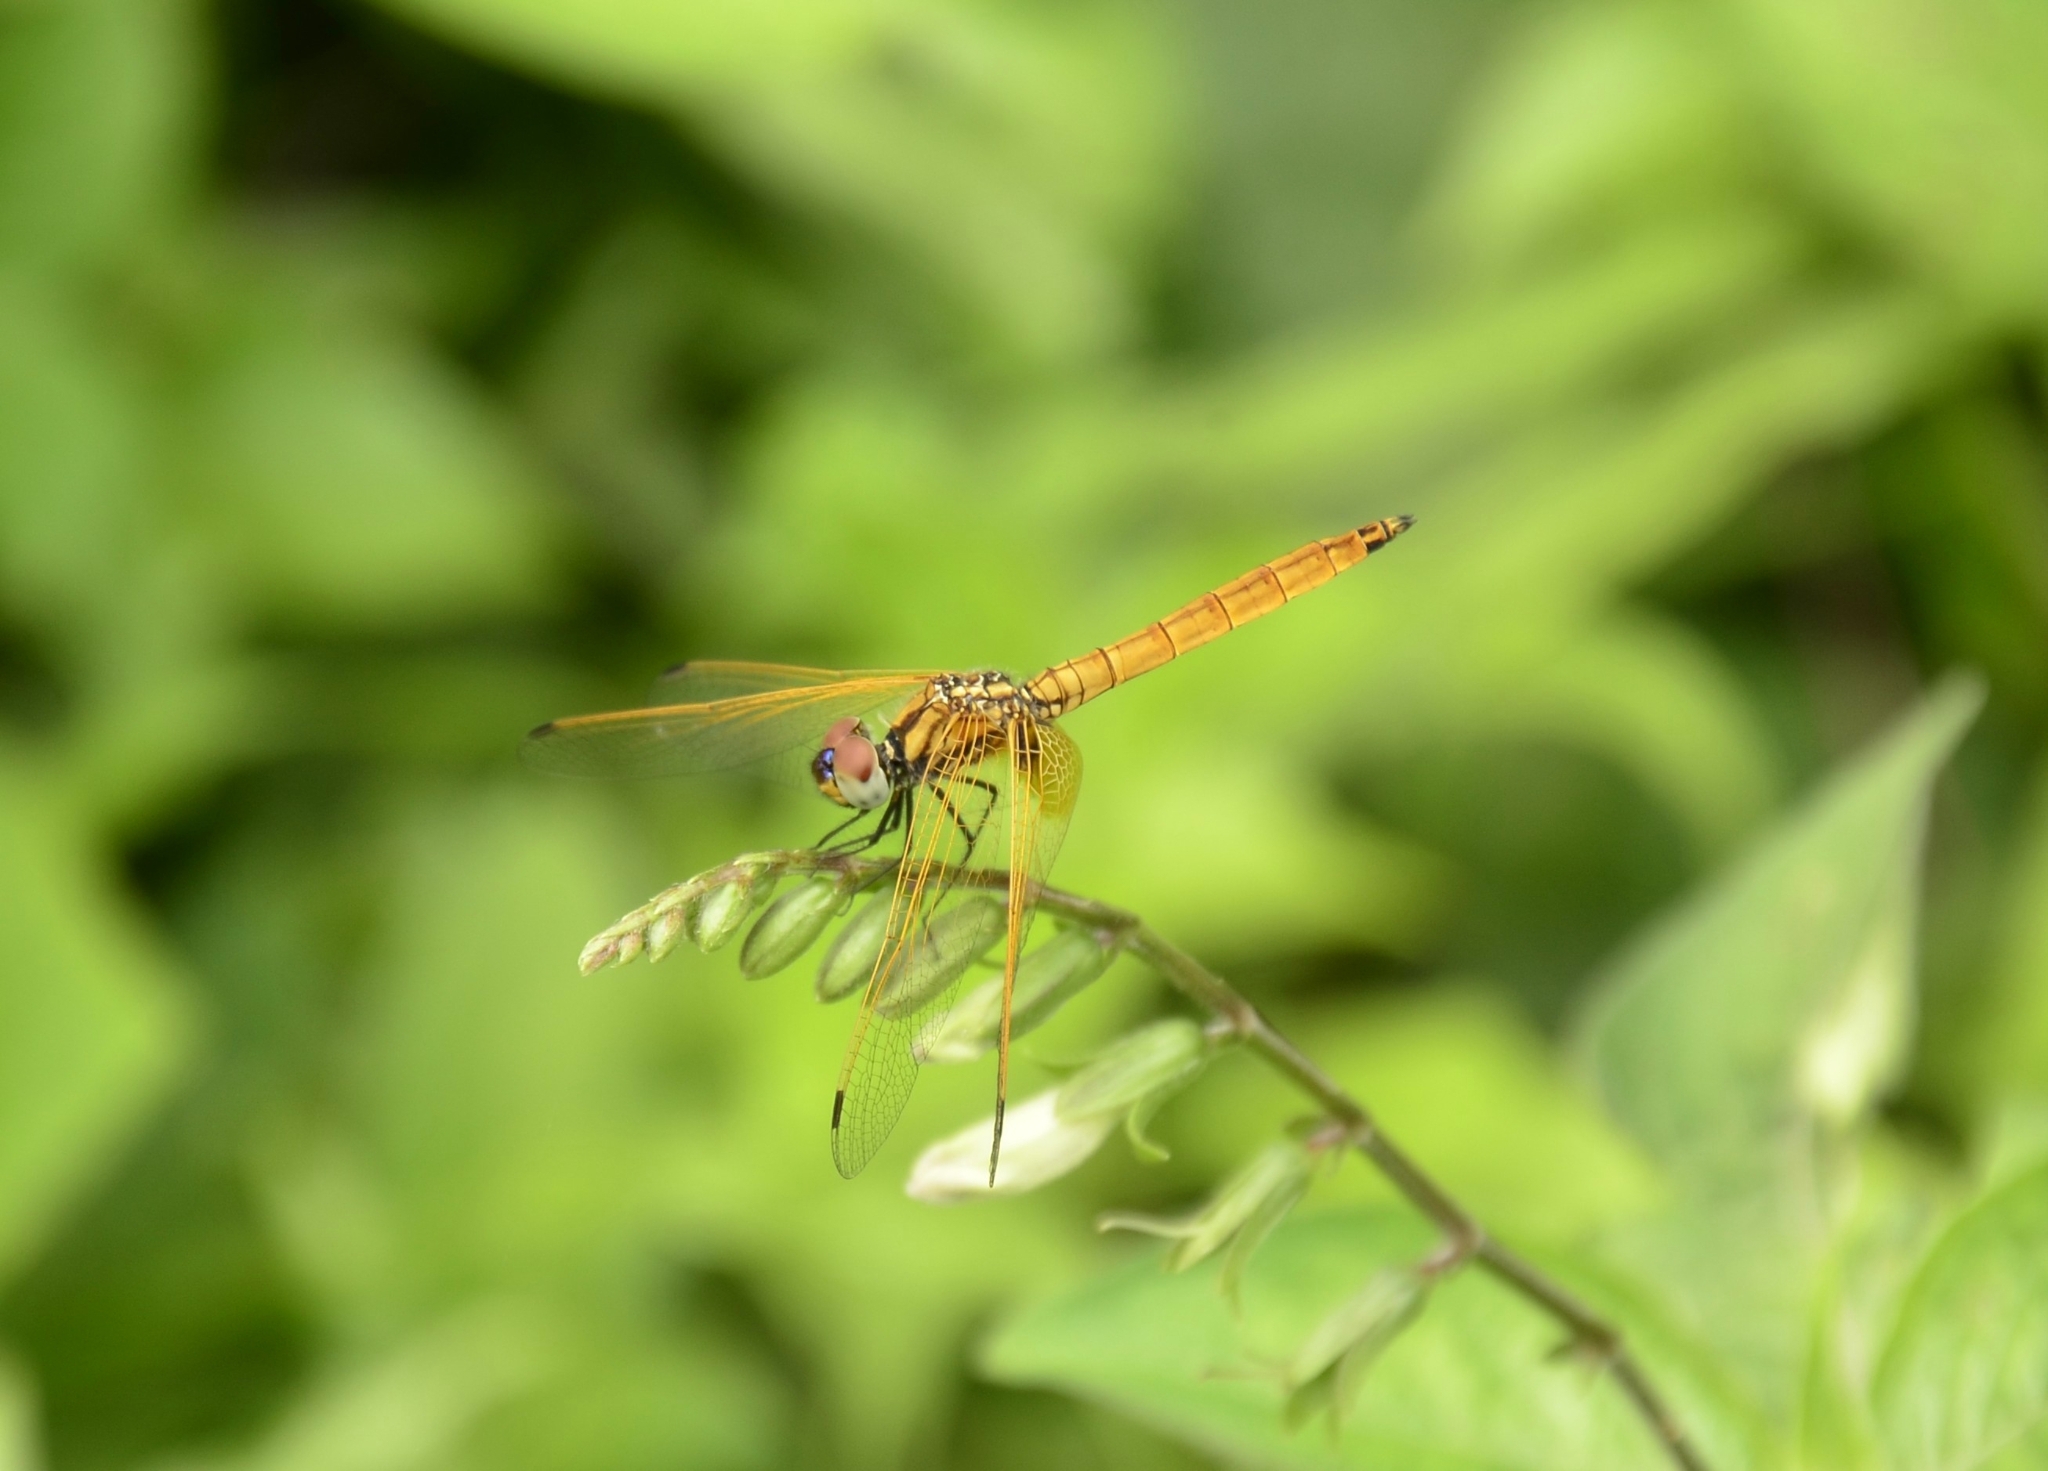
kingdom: Animalia
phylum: Arthropoda
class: Insecta
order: Odonata
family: Libellulidae
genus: Trithemis
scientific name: Trithemis aurora
